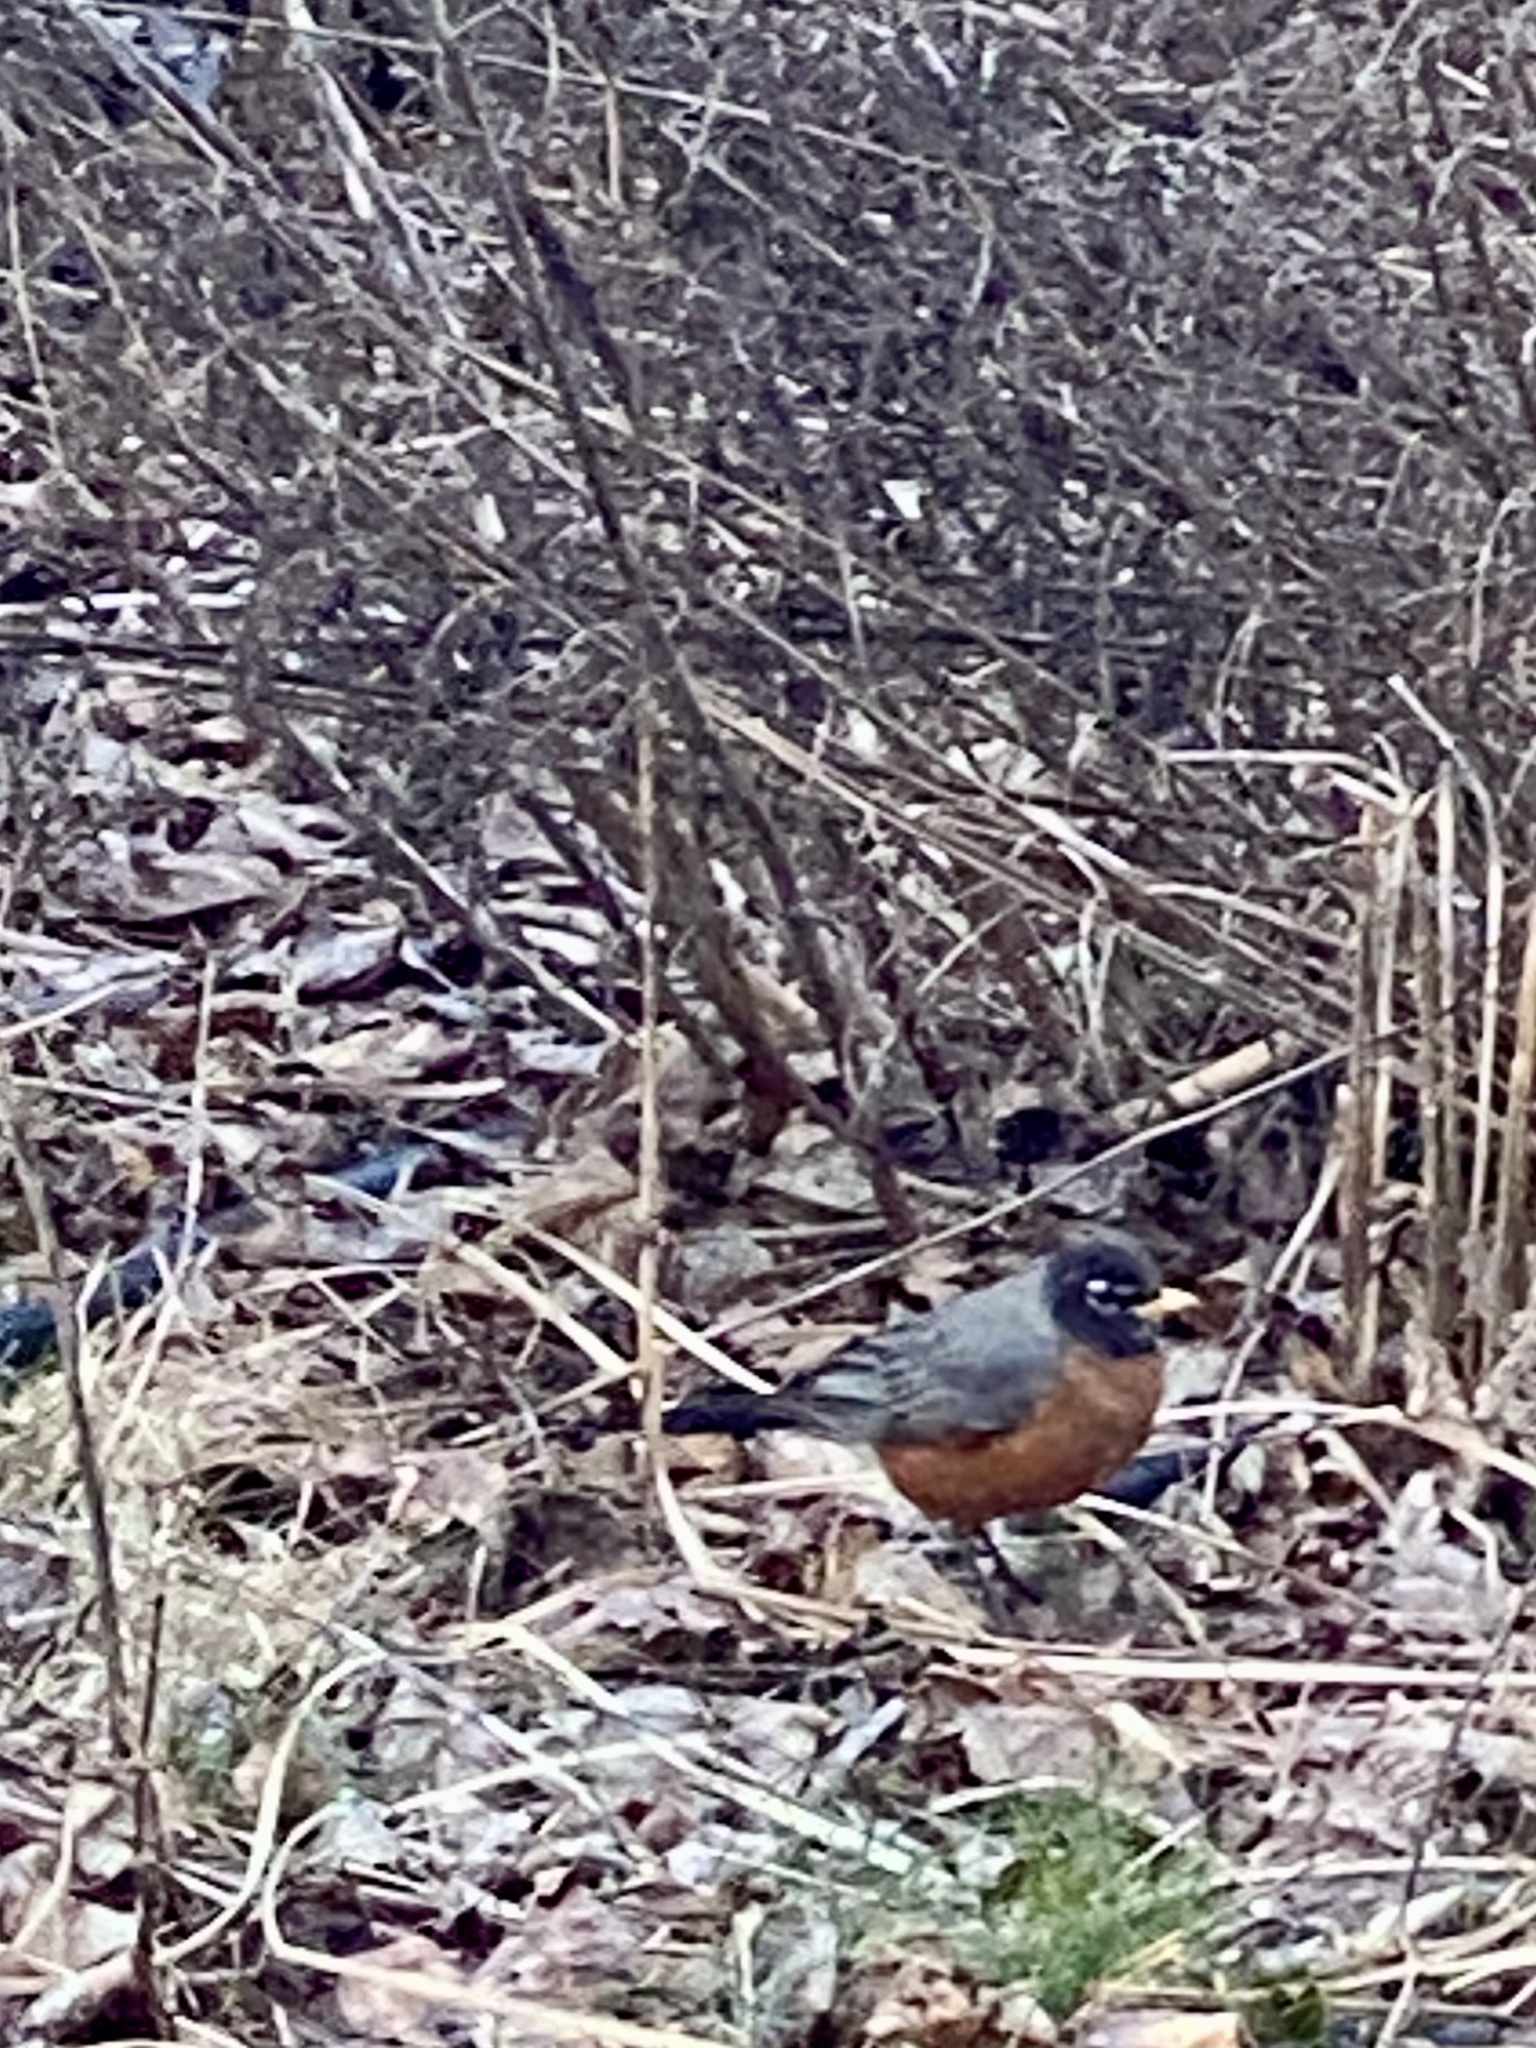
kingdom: Animalia
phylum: Chordata
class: Aves
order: Passeriformes
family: Turdidae
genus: Turdus
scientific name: Turdus migratorius
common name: American robin
